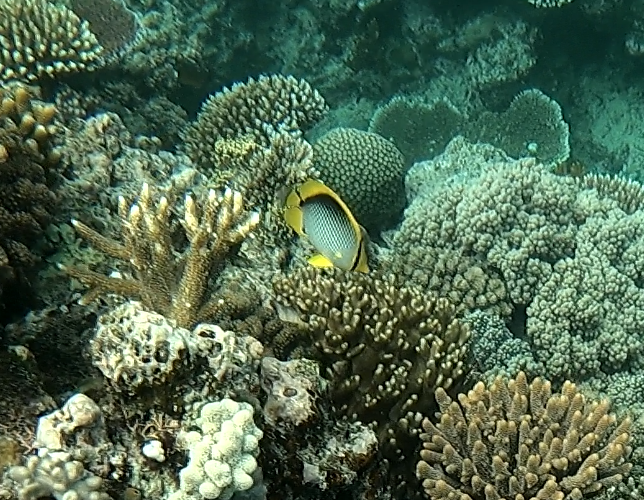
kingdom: Animalia
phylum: Chordata
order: Perciformes
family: Chaetodontidae
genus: Chaetodon
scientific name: Chaetodon melannotus
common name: Blackback butterflyfish
